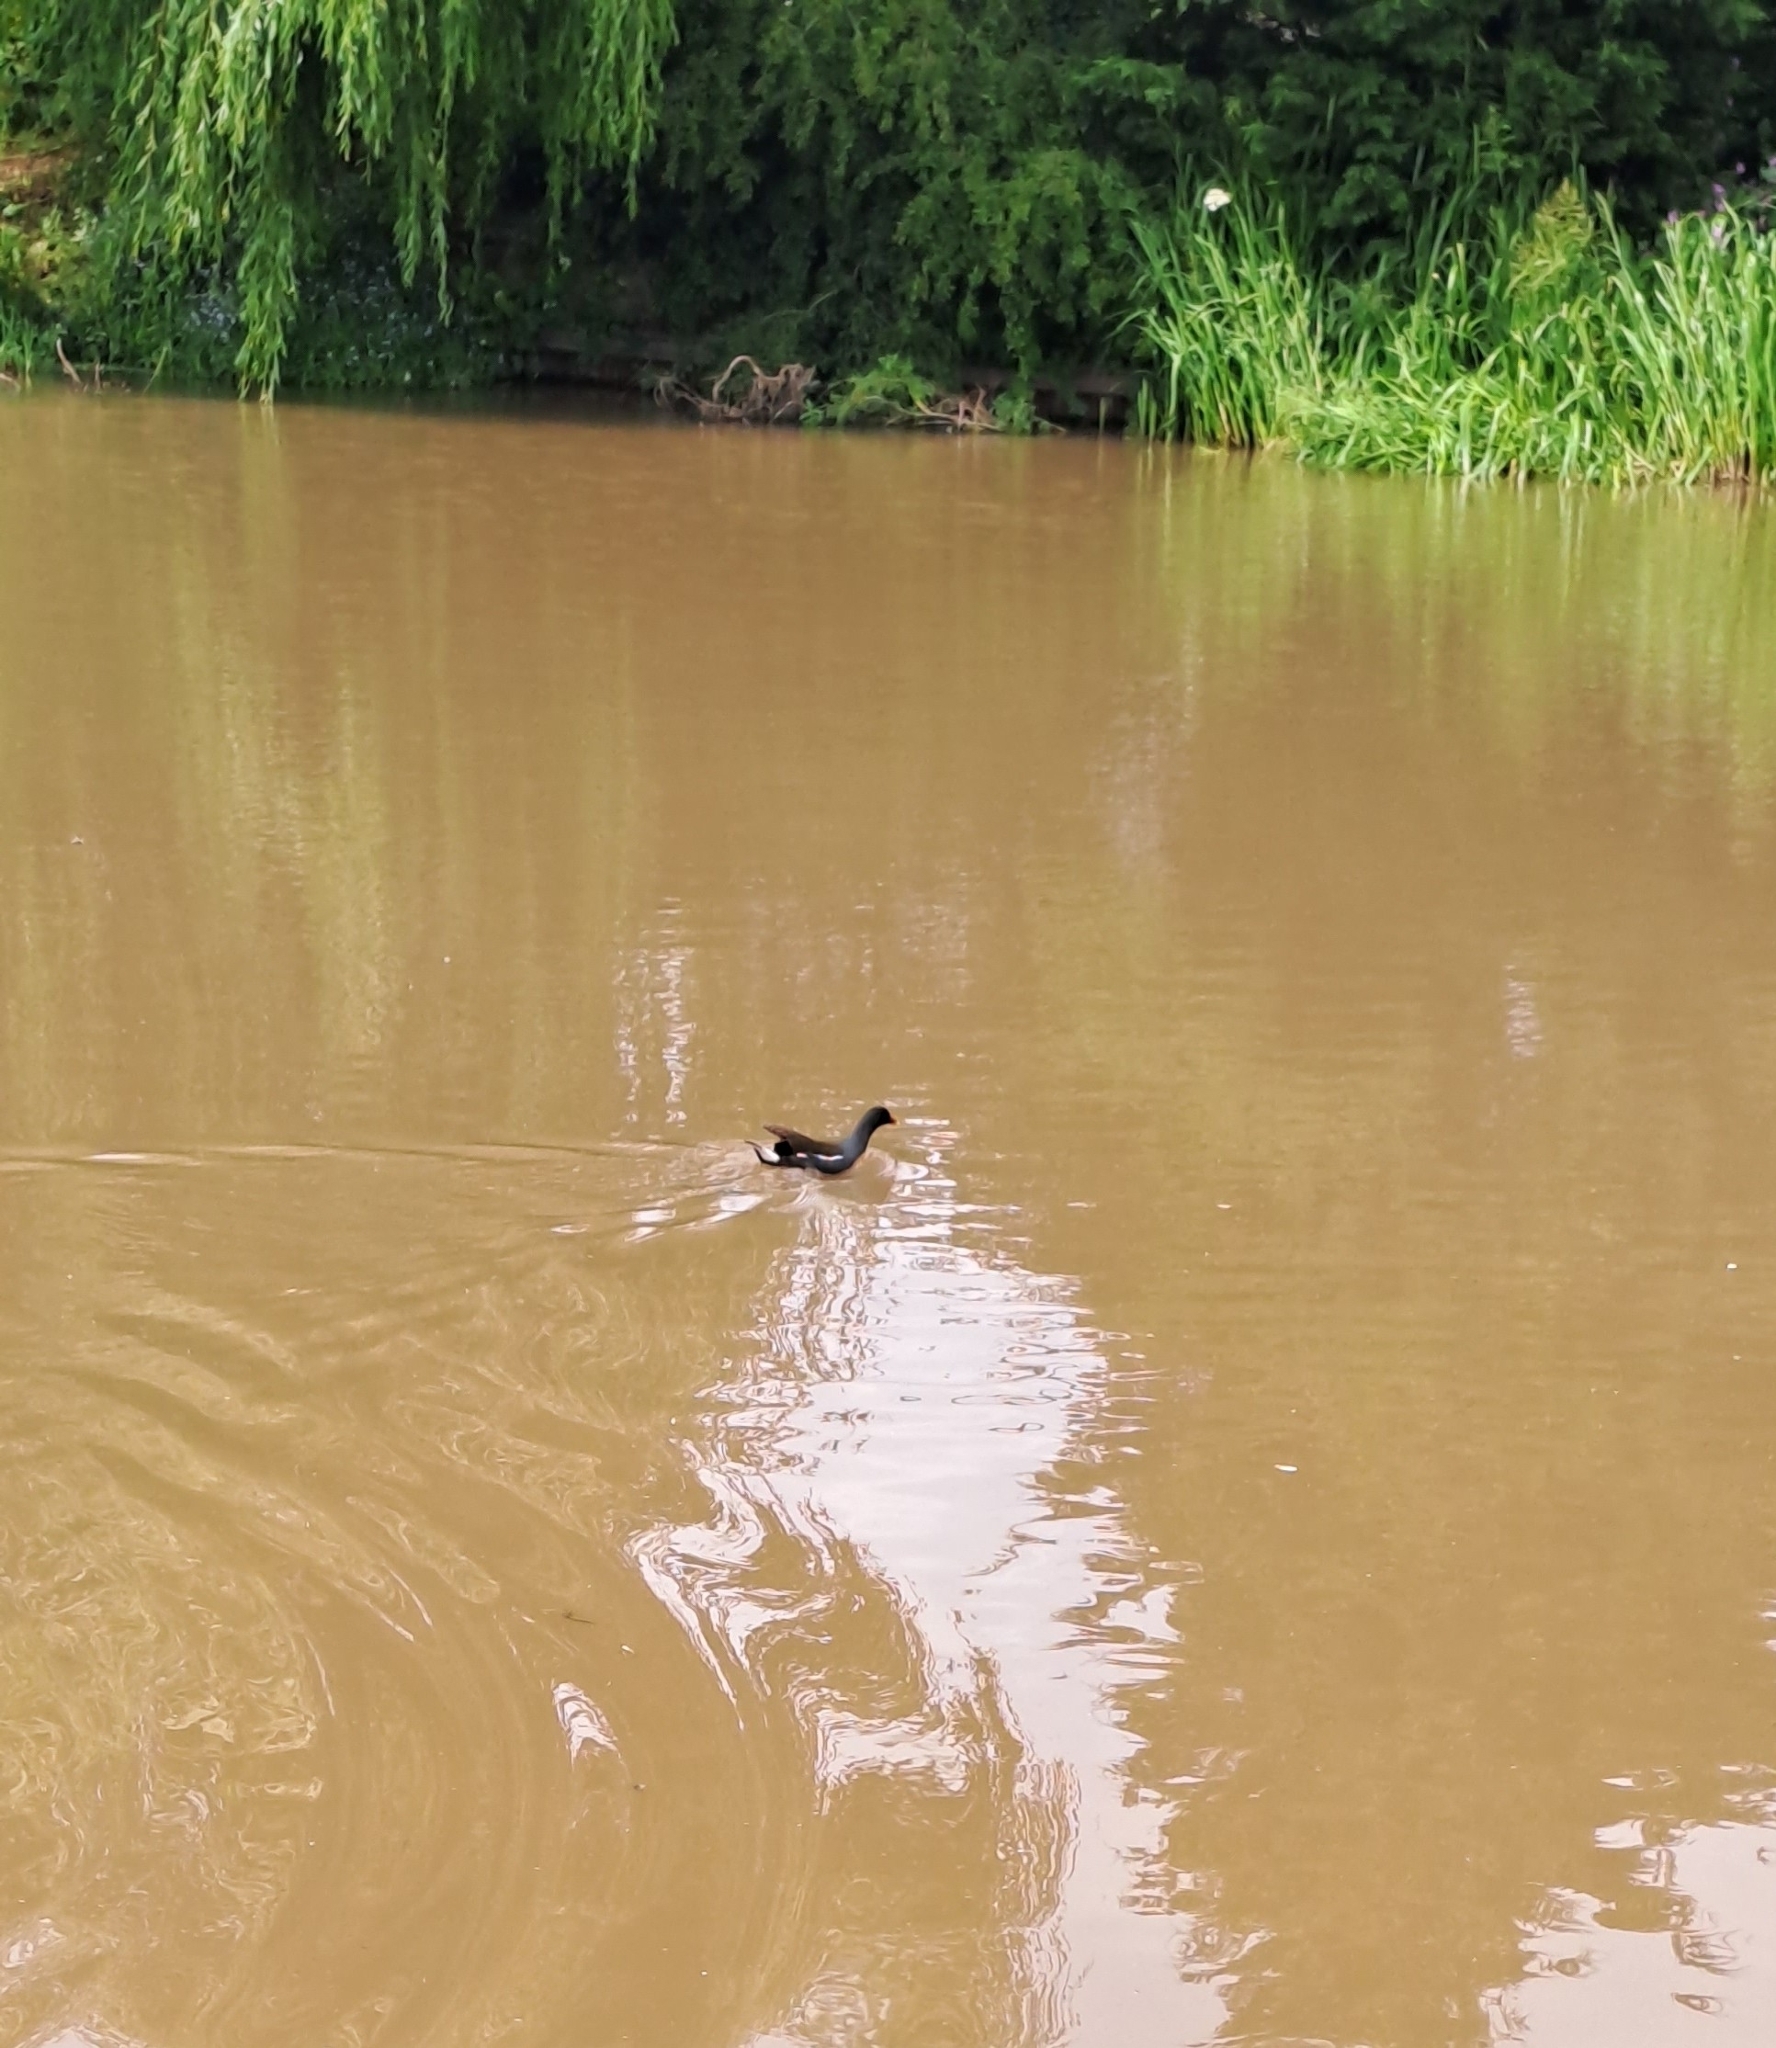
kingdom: Animalia
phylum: Chordata
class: Aves
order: Gruiformes
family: Rallidae
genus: Gallinula
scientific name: Gallinula chloropus
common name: Common moorhen
